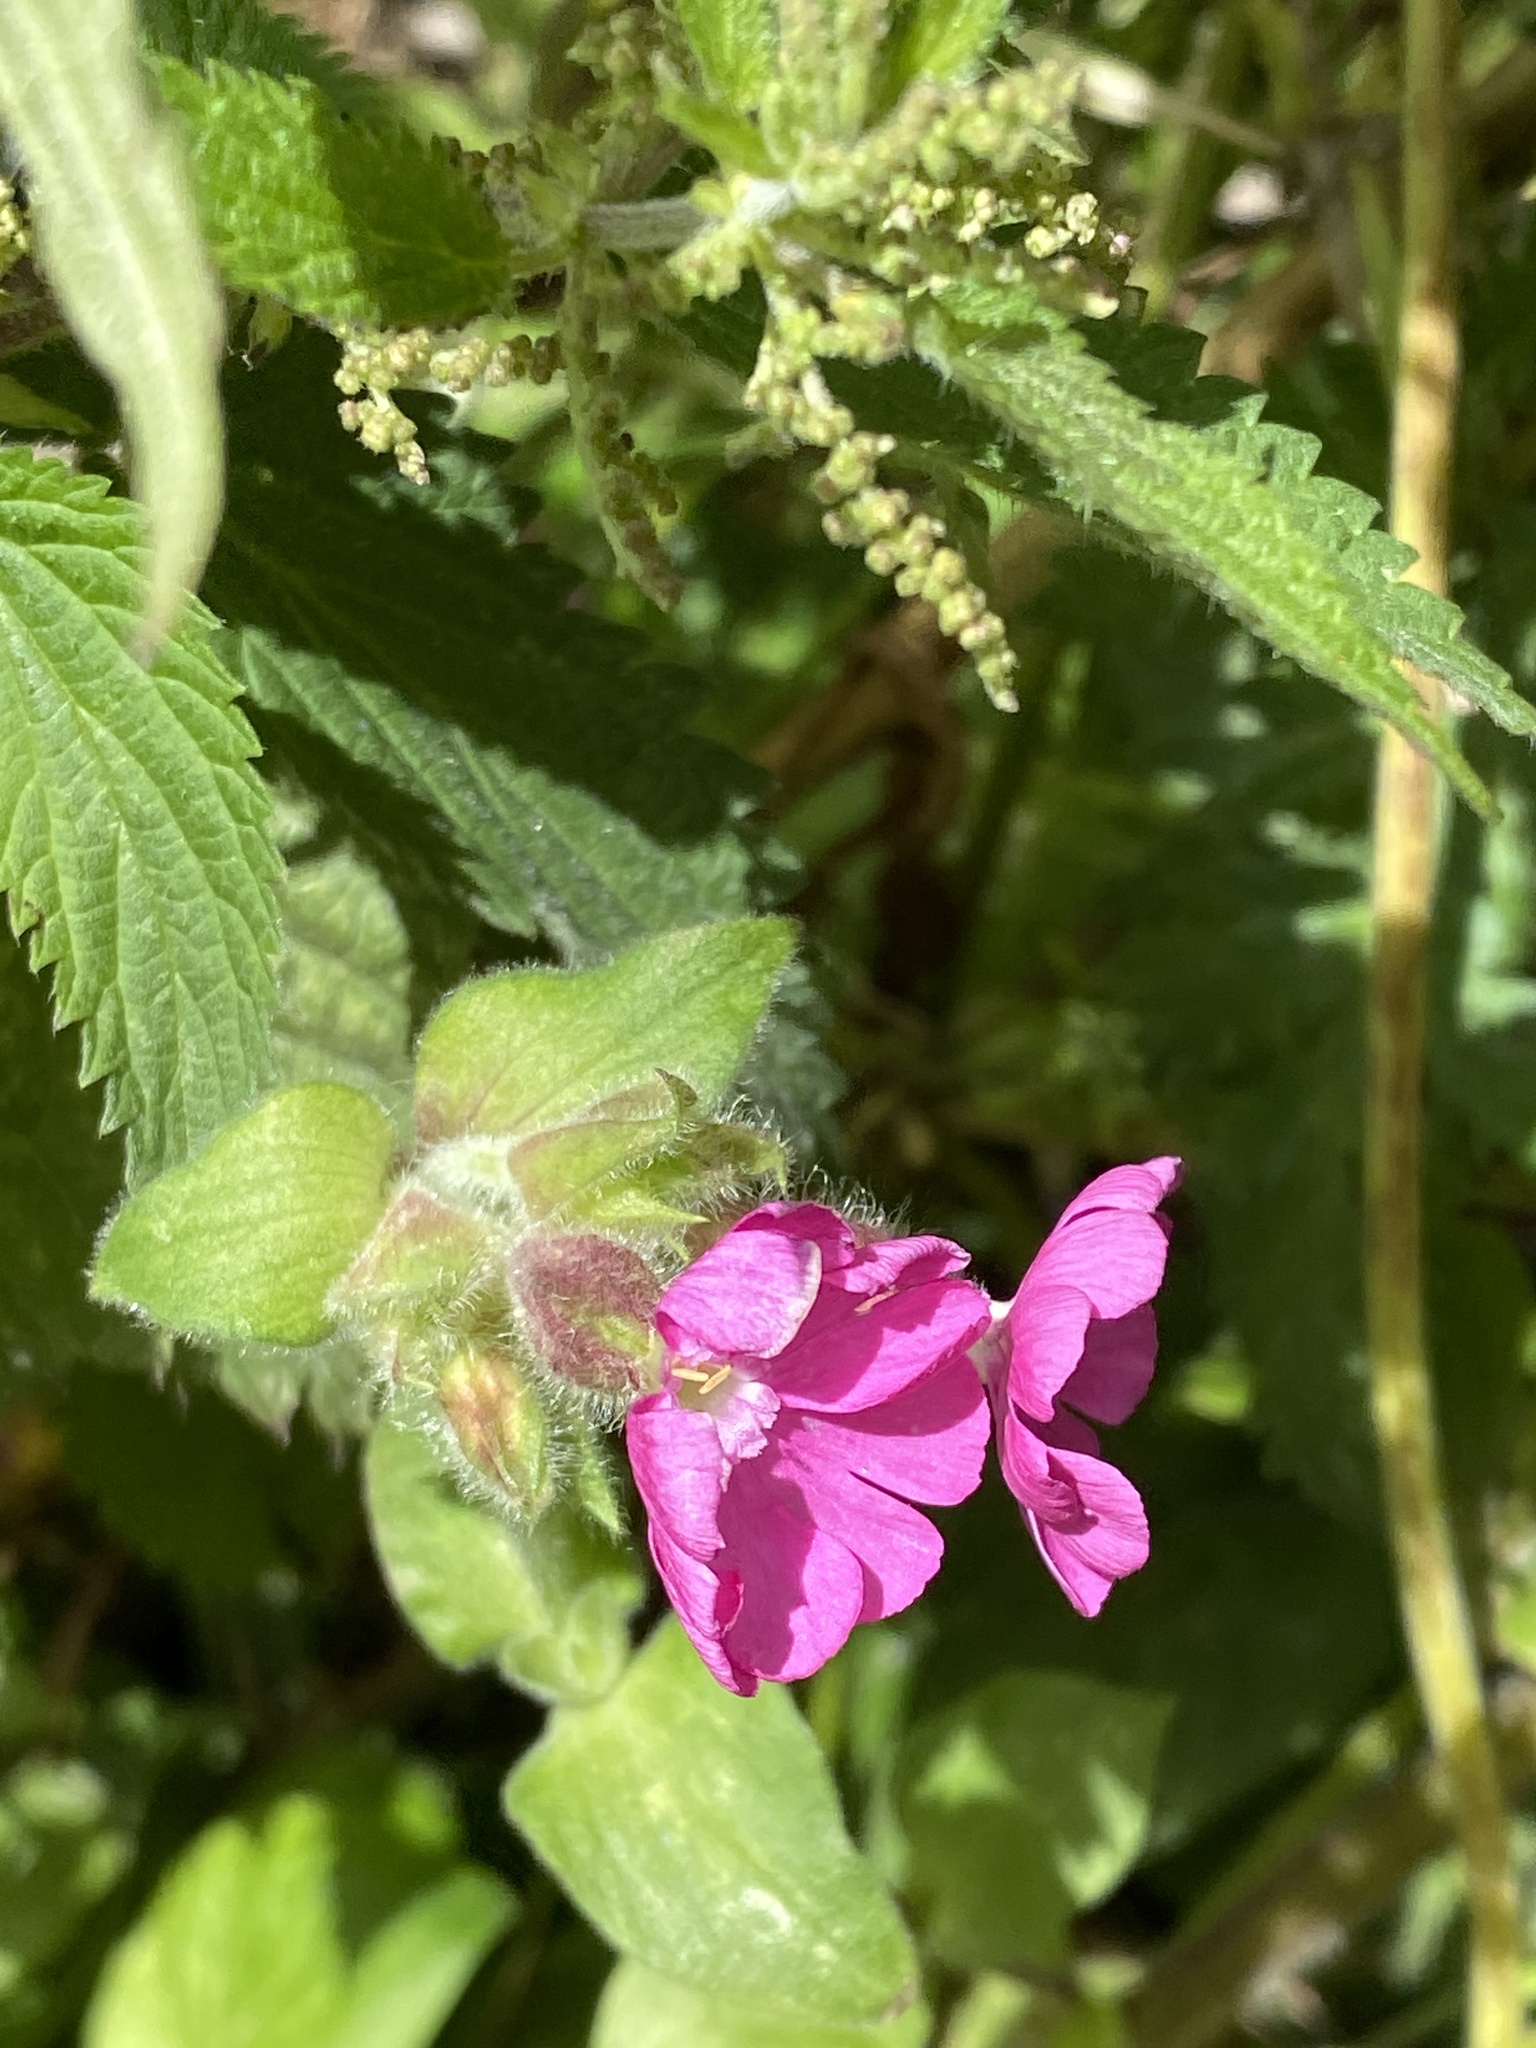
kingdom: Plantae
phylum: Tracheophyta
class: Magnoliopsida
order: Caryophyllales
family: Caryophyllaceae
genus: Silene
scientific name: Silene dioica
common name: Red campion
